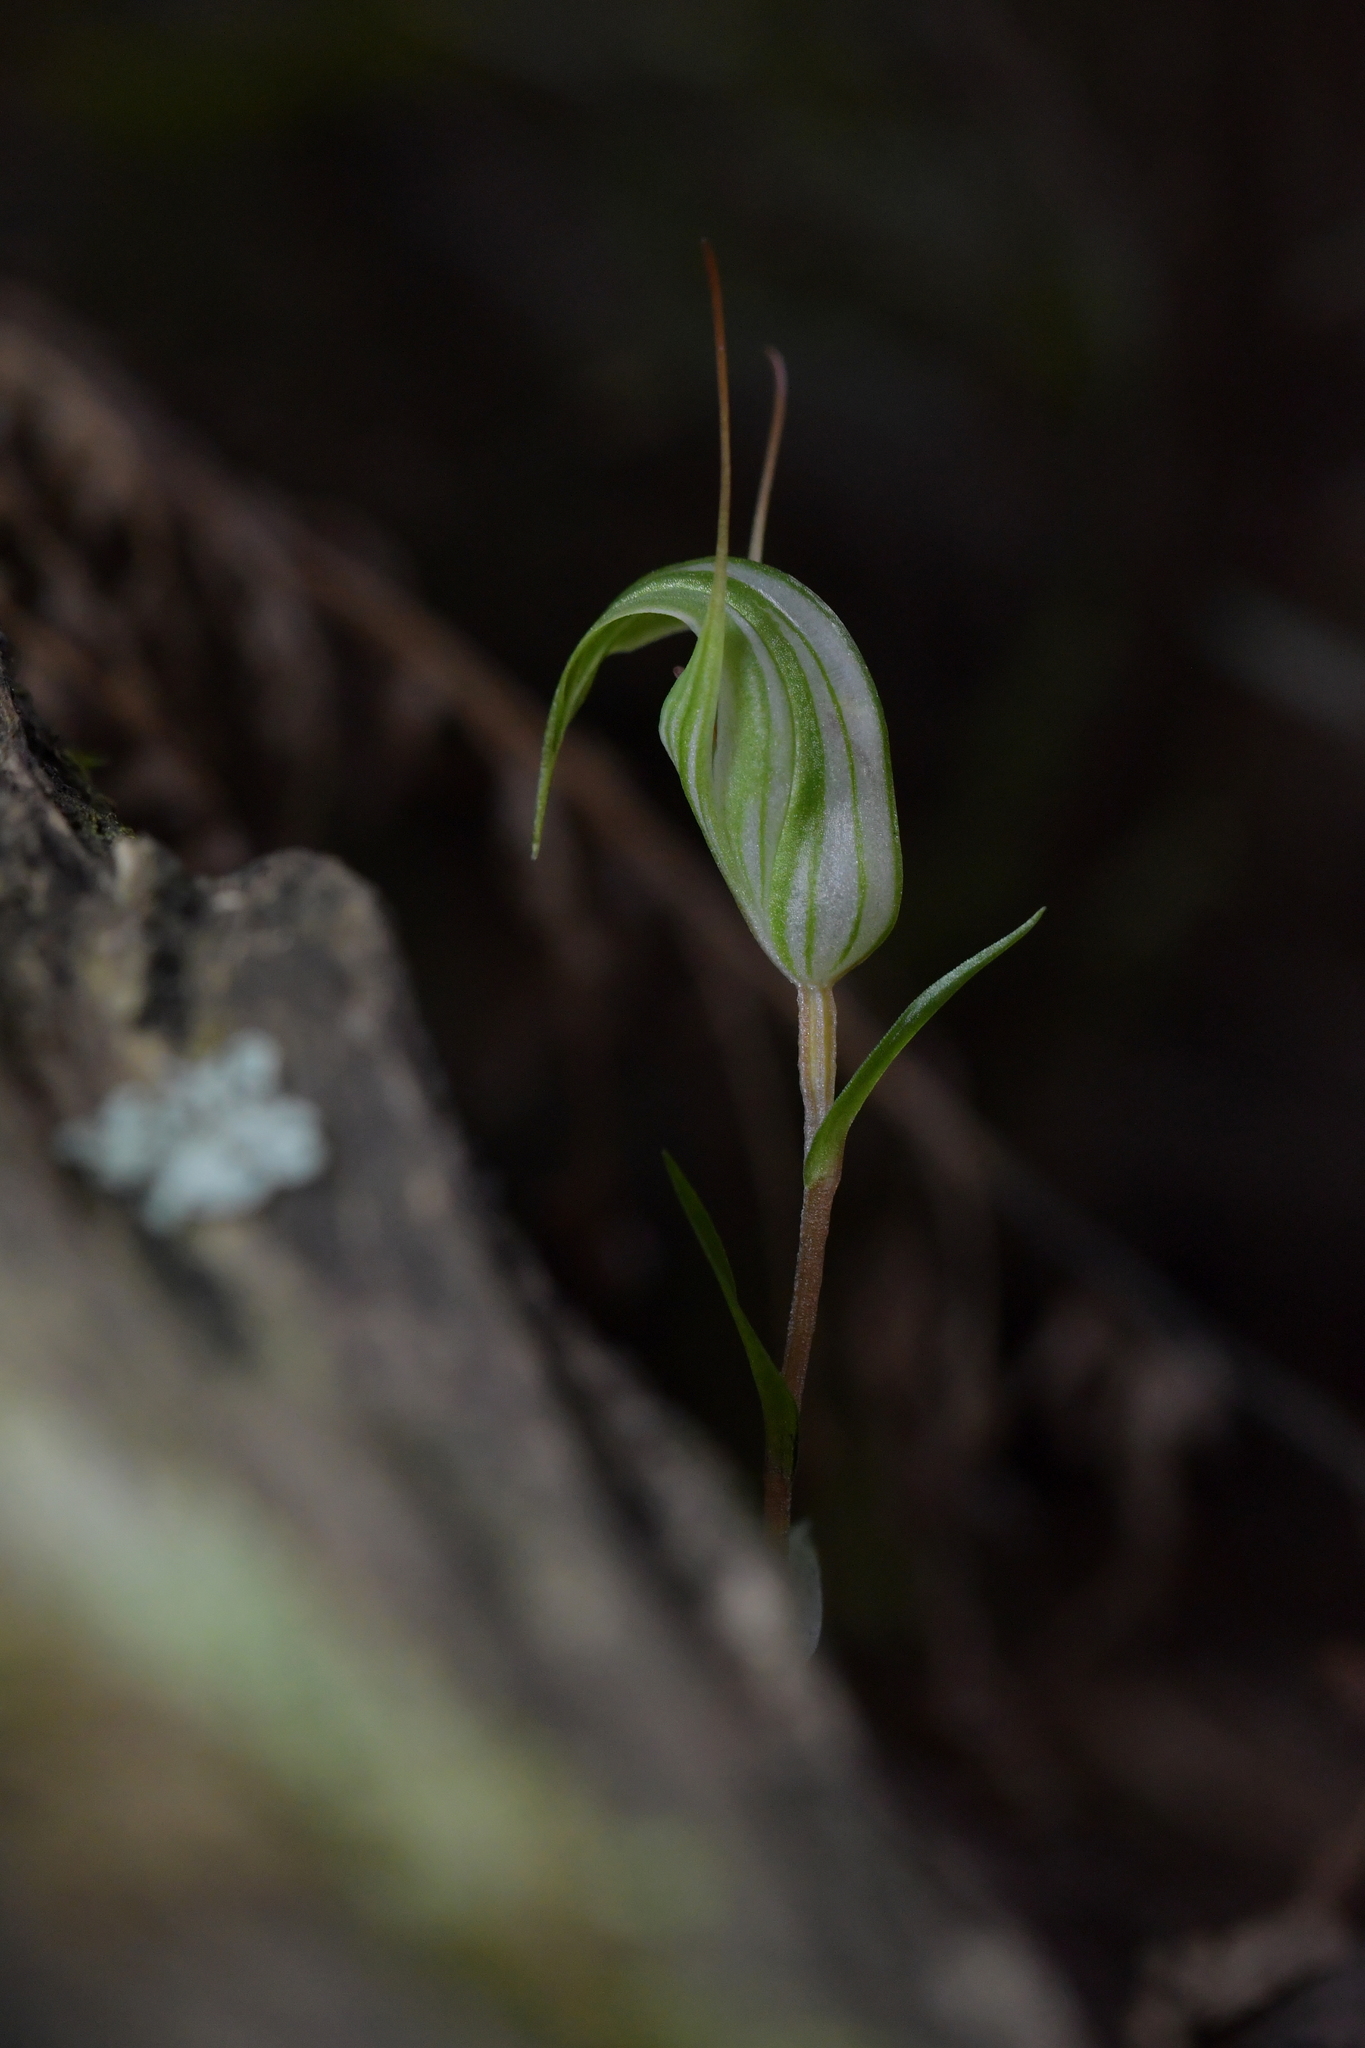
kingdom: Plantae
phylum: Tracheophyta
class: Liliopsida
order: Asparagales
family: Orchidaceae
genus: Pterostylis
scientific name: Pterostylis alobula
